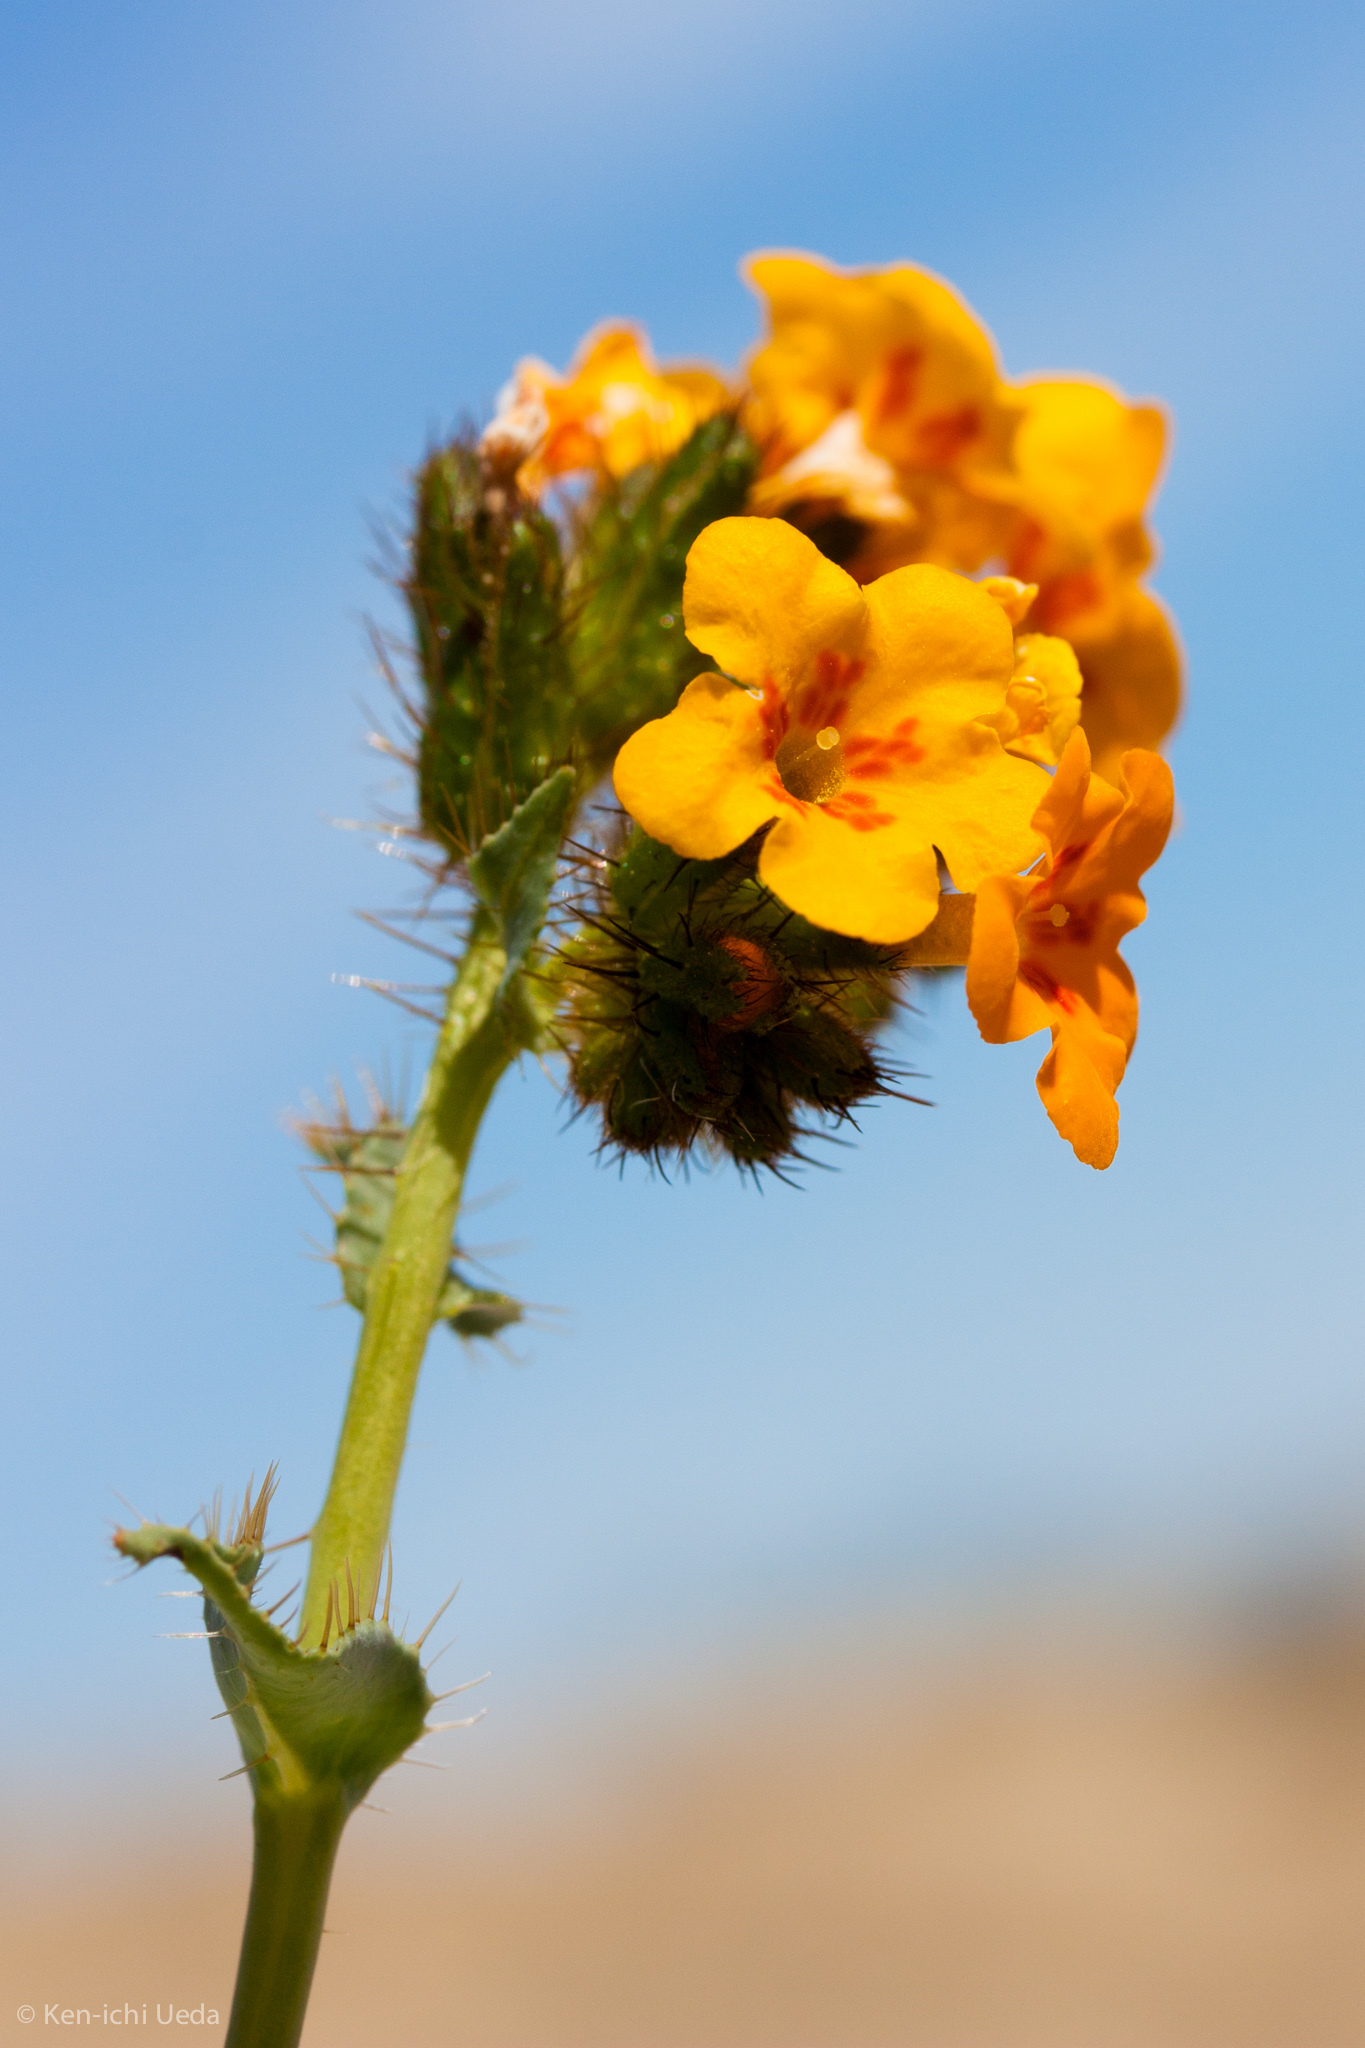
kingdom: Plantae
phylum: Tracheophyta
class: Magnoliopsida
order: Boraginales
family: Boraginaceae
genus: Amsinckia
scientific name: Amsinckia vernicosa
